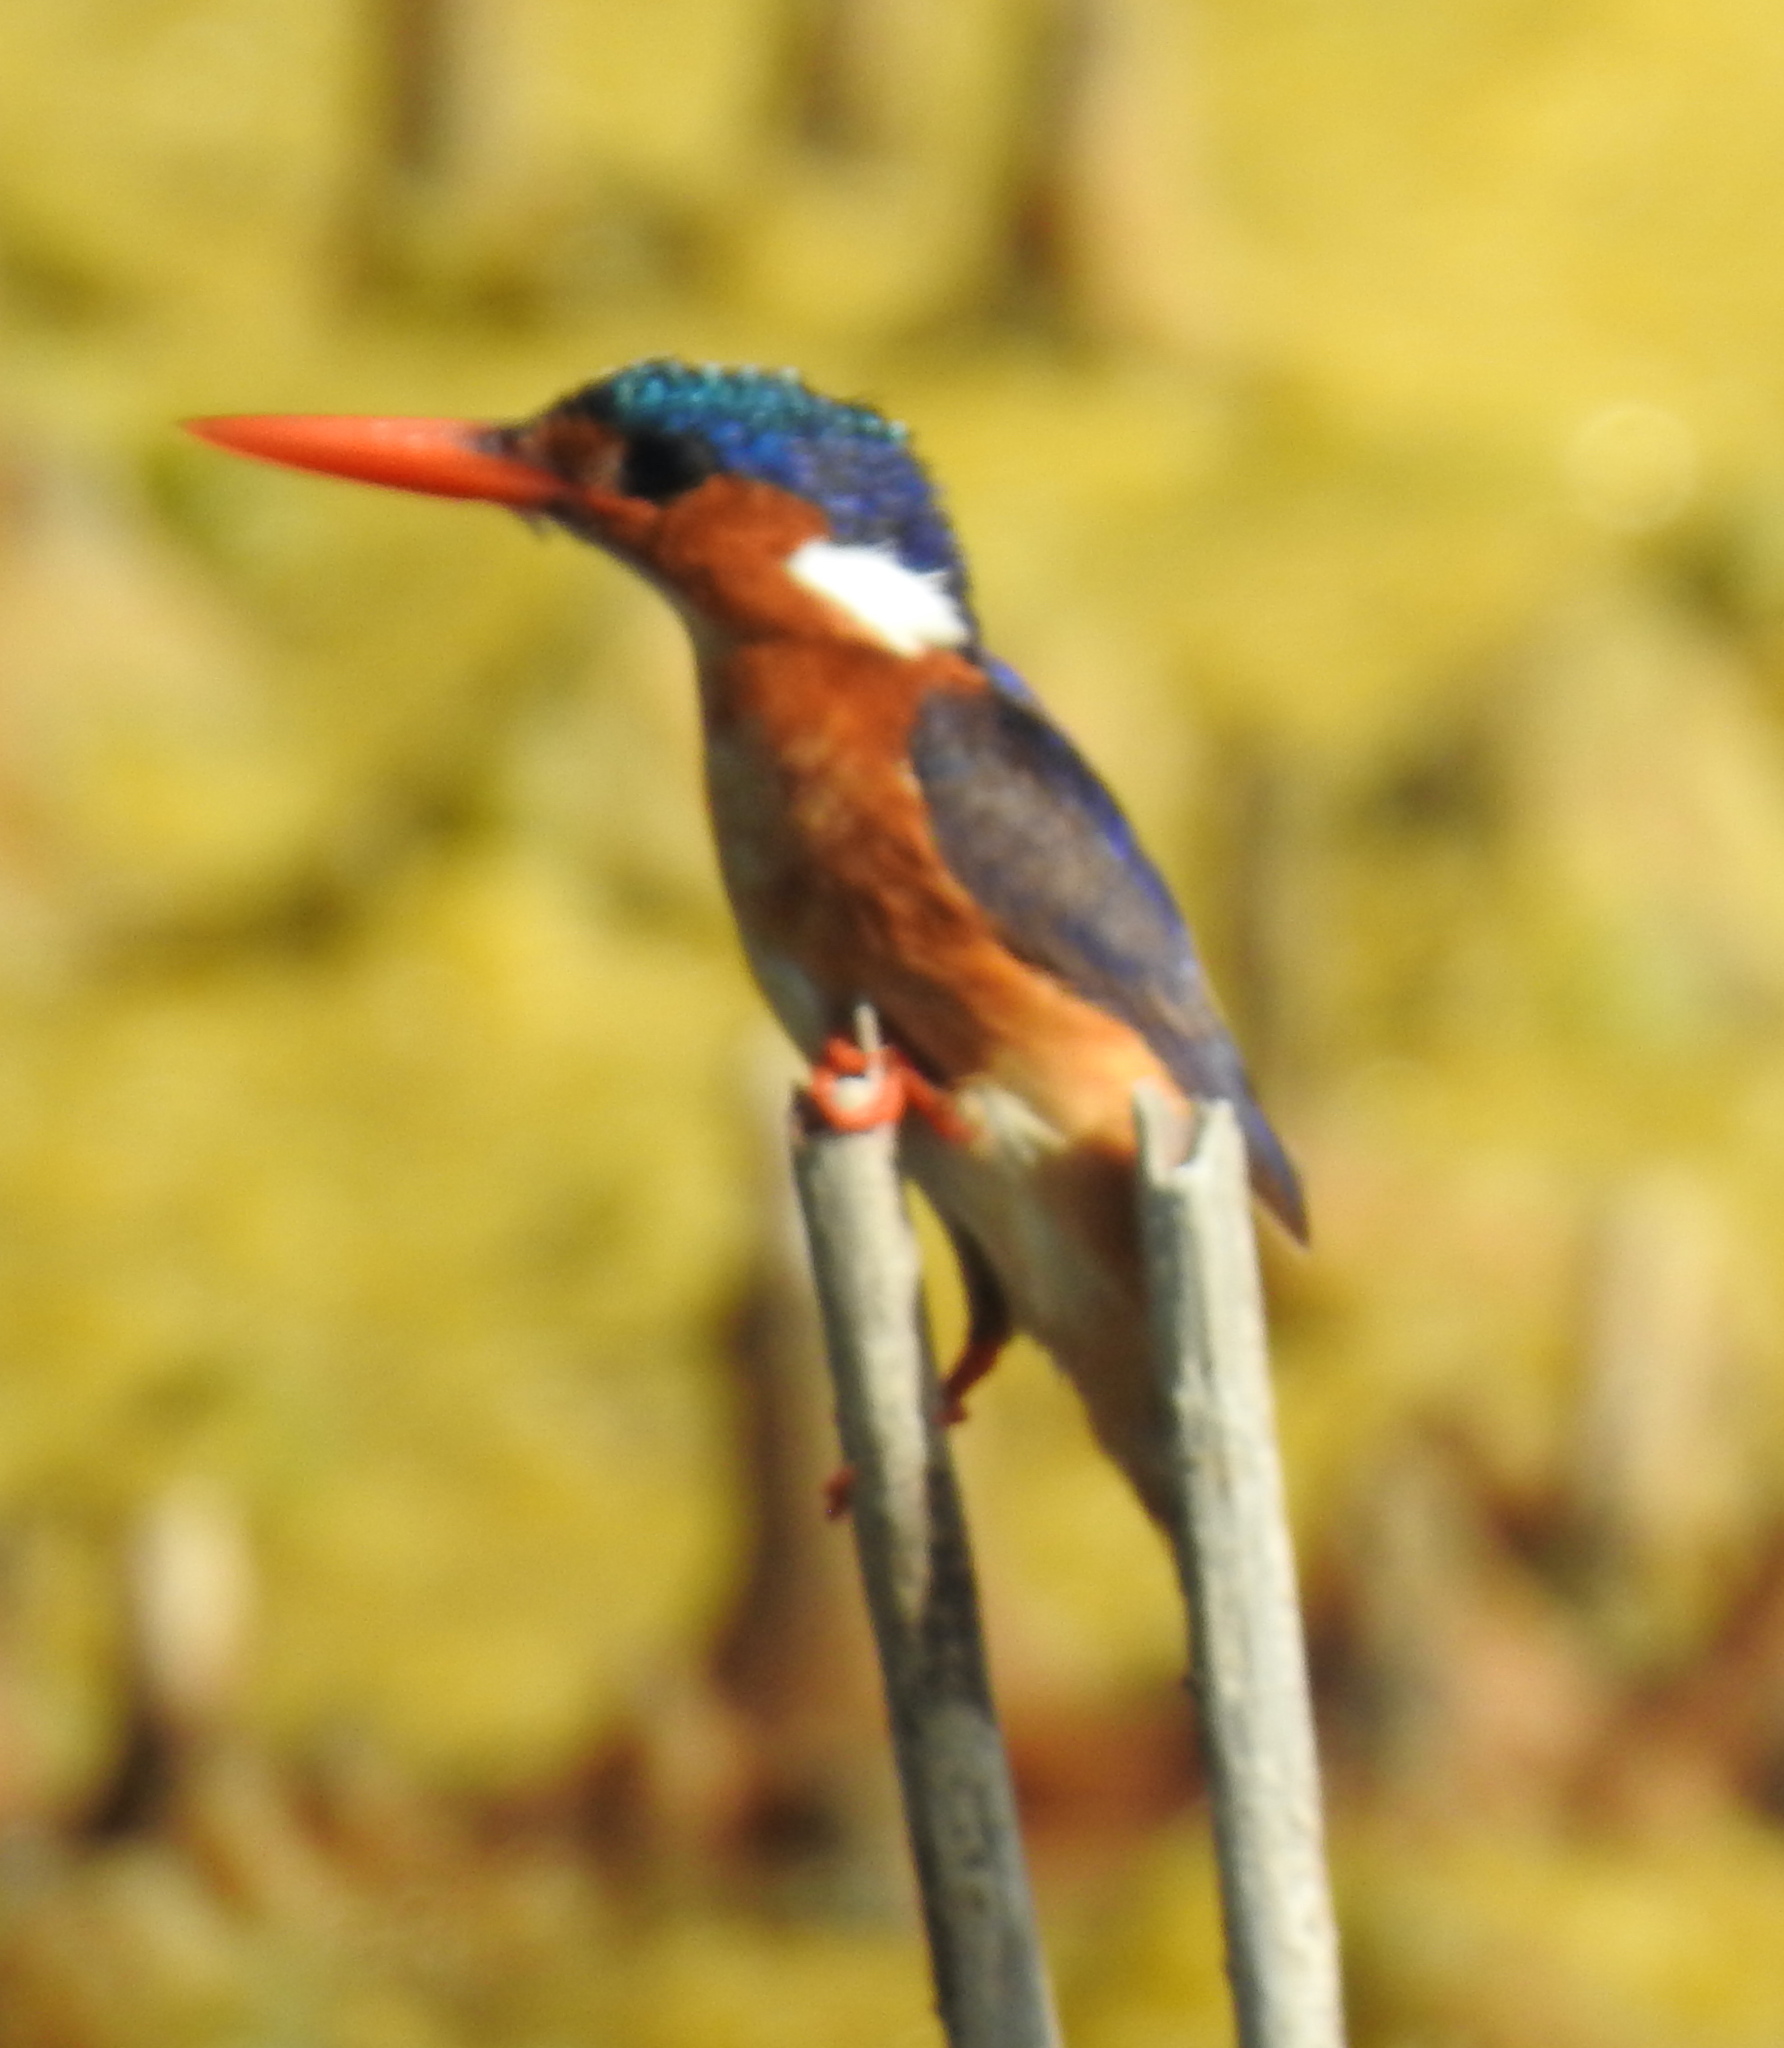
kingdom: Animalia
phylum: Chordata
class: Aves
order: Coraciiformes
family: Alcedinidae
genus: Corythornis
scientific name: Corythornis cristatus
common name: Malachite kingfisher
